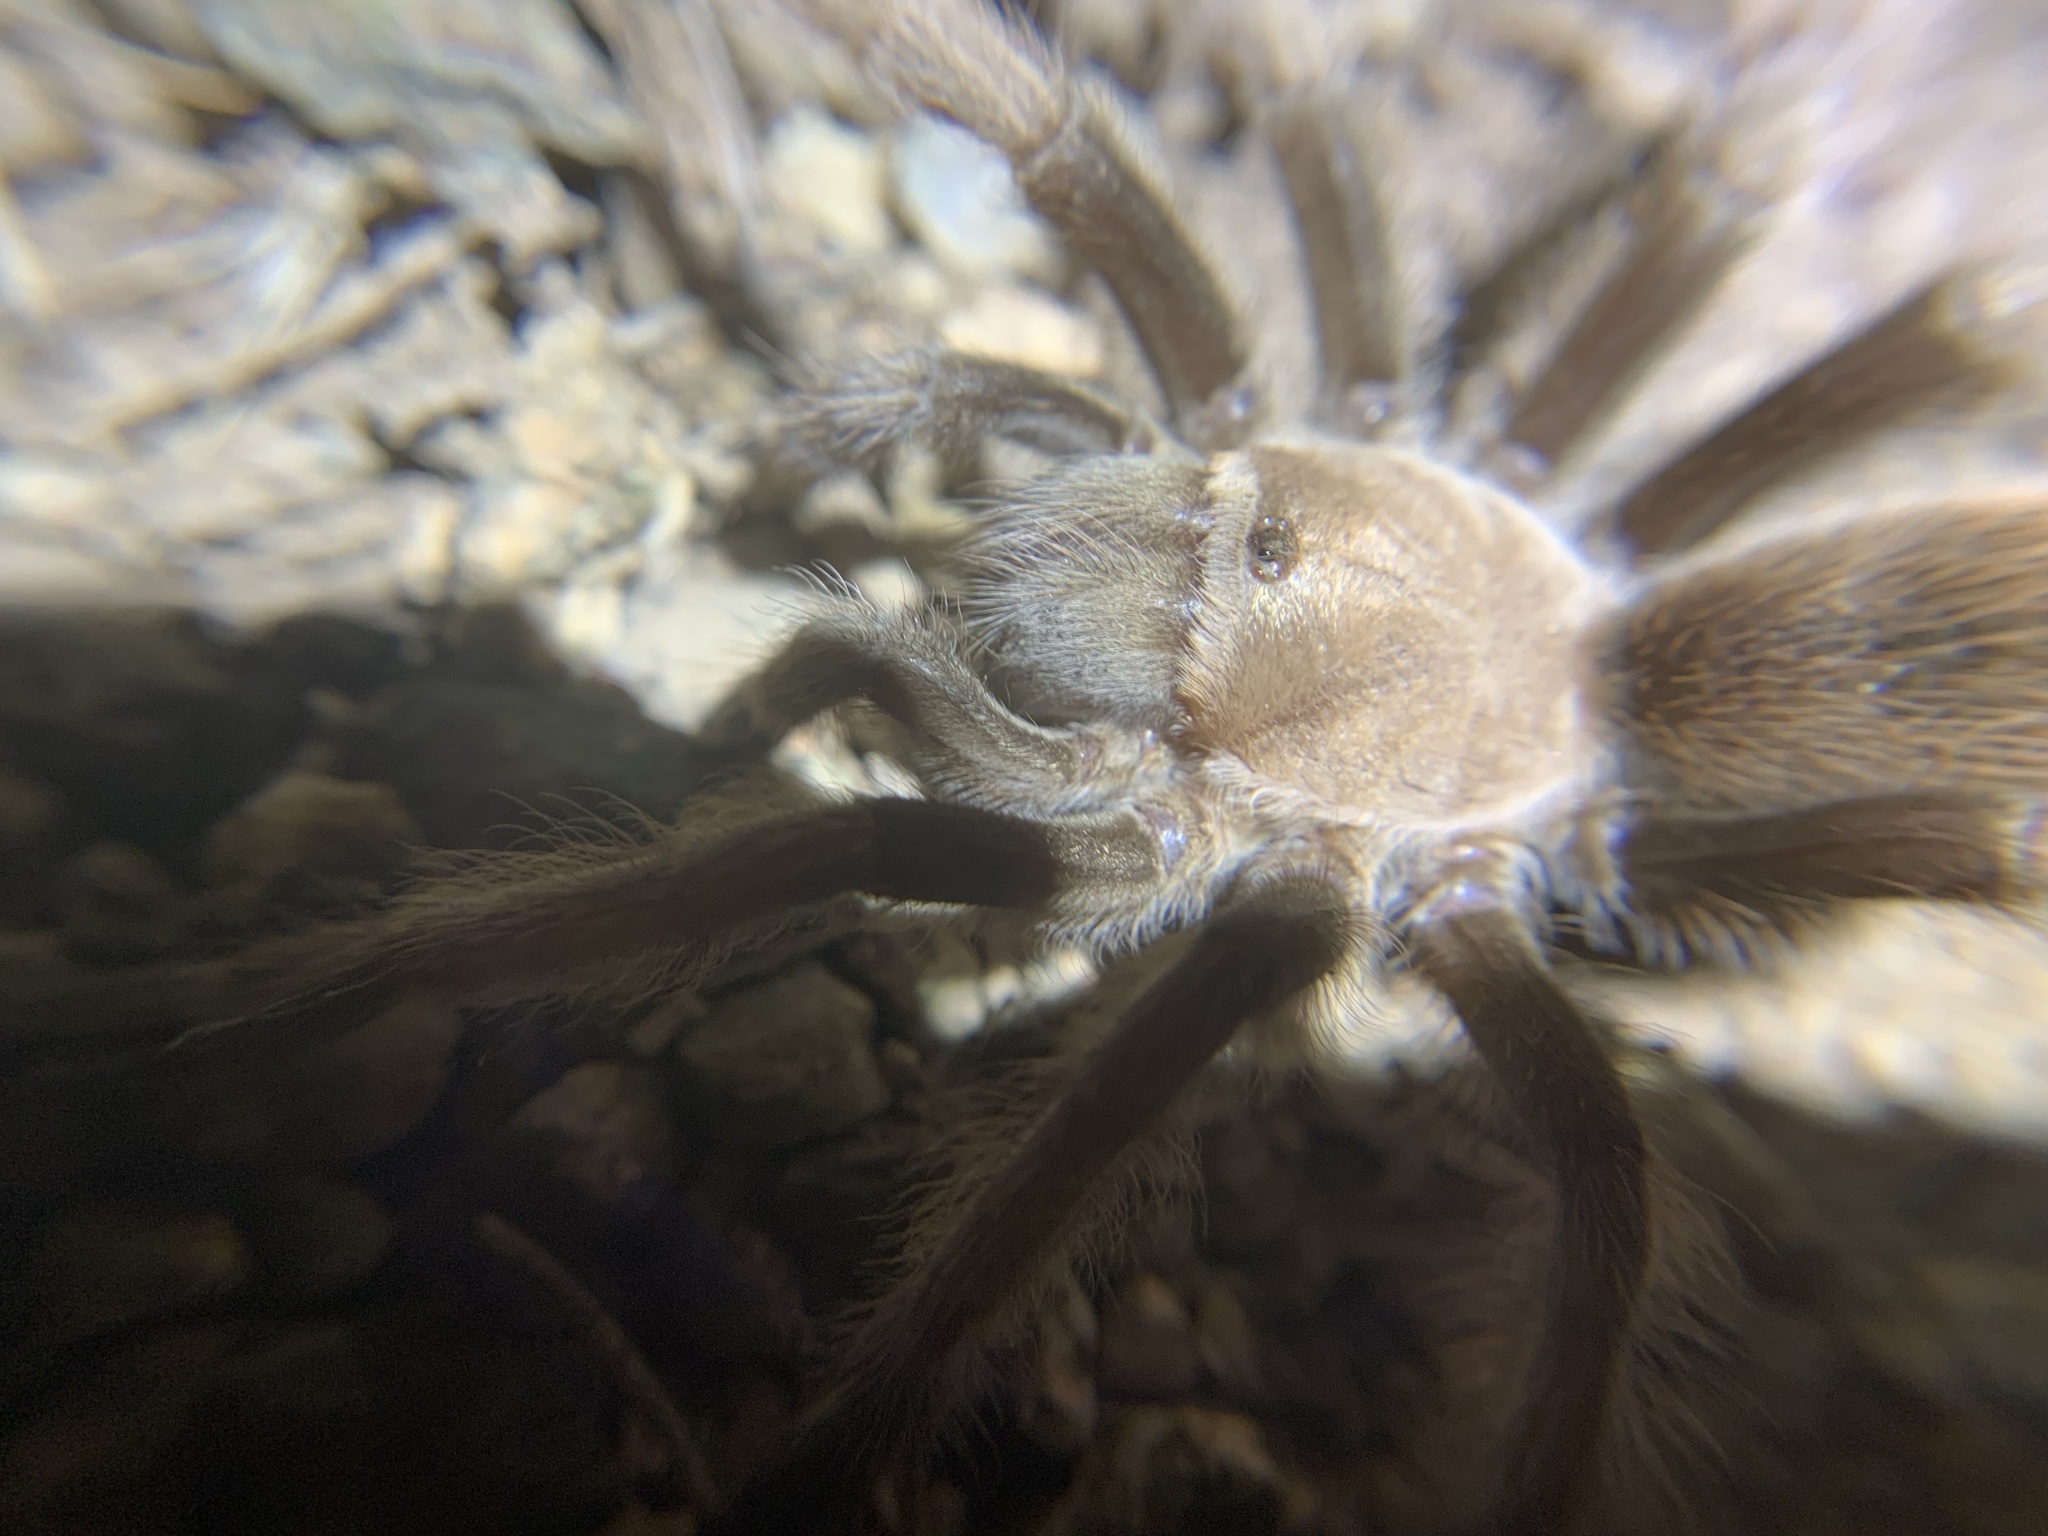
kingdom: Animalia
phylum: Arthropoda
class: Arachnida
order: Araneae
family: Theraphosidae
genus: Aphonopelma
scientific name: Aphonopelma iodius
